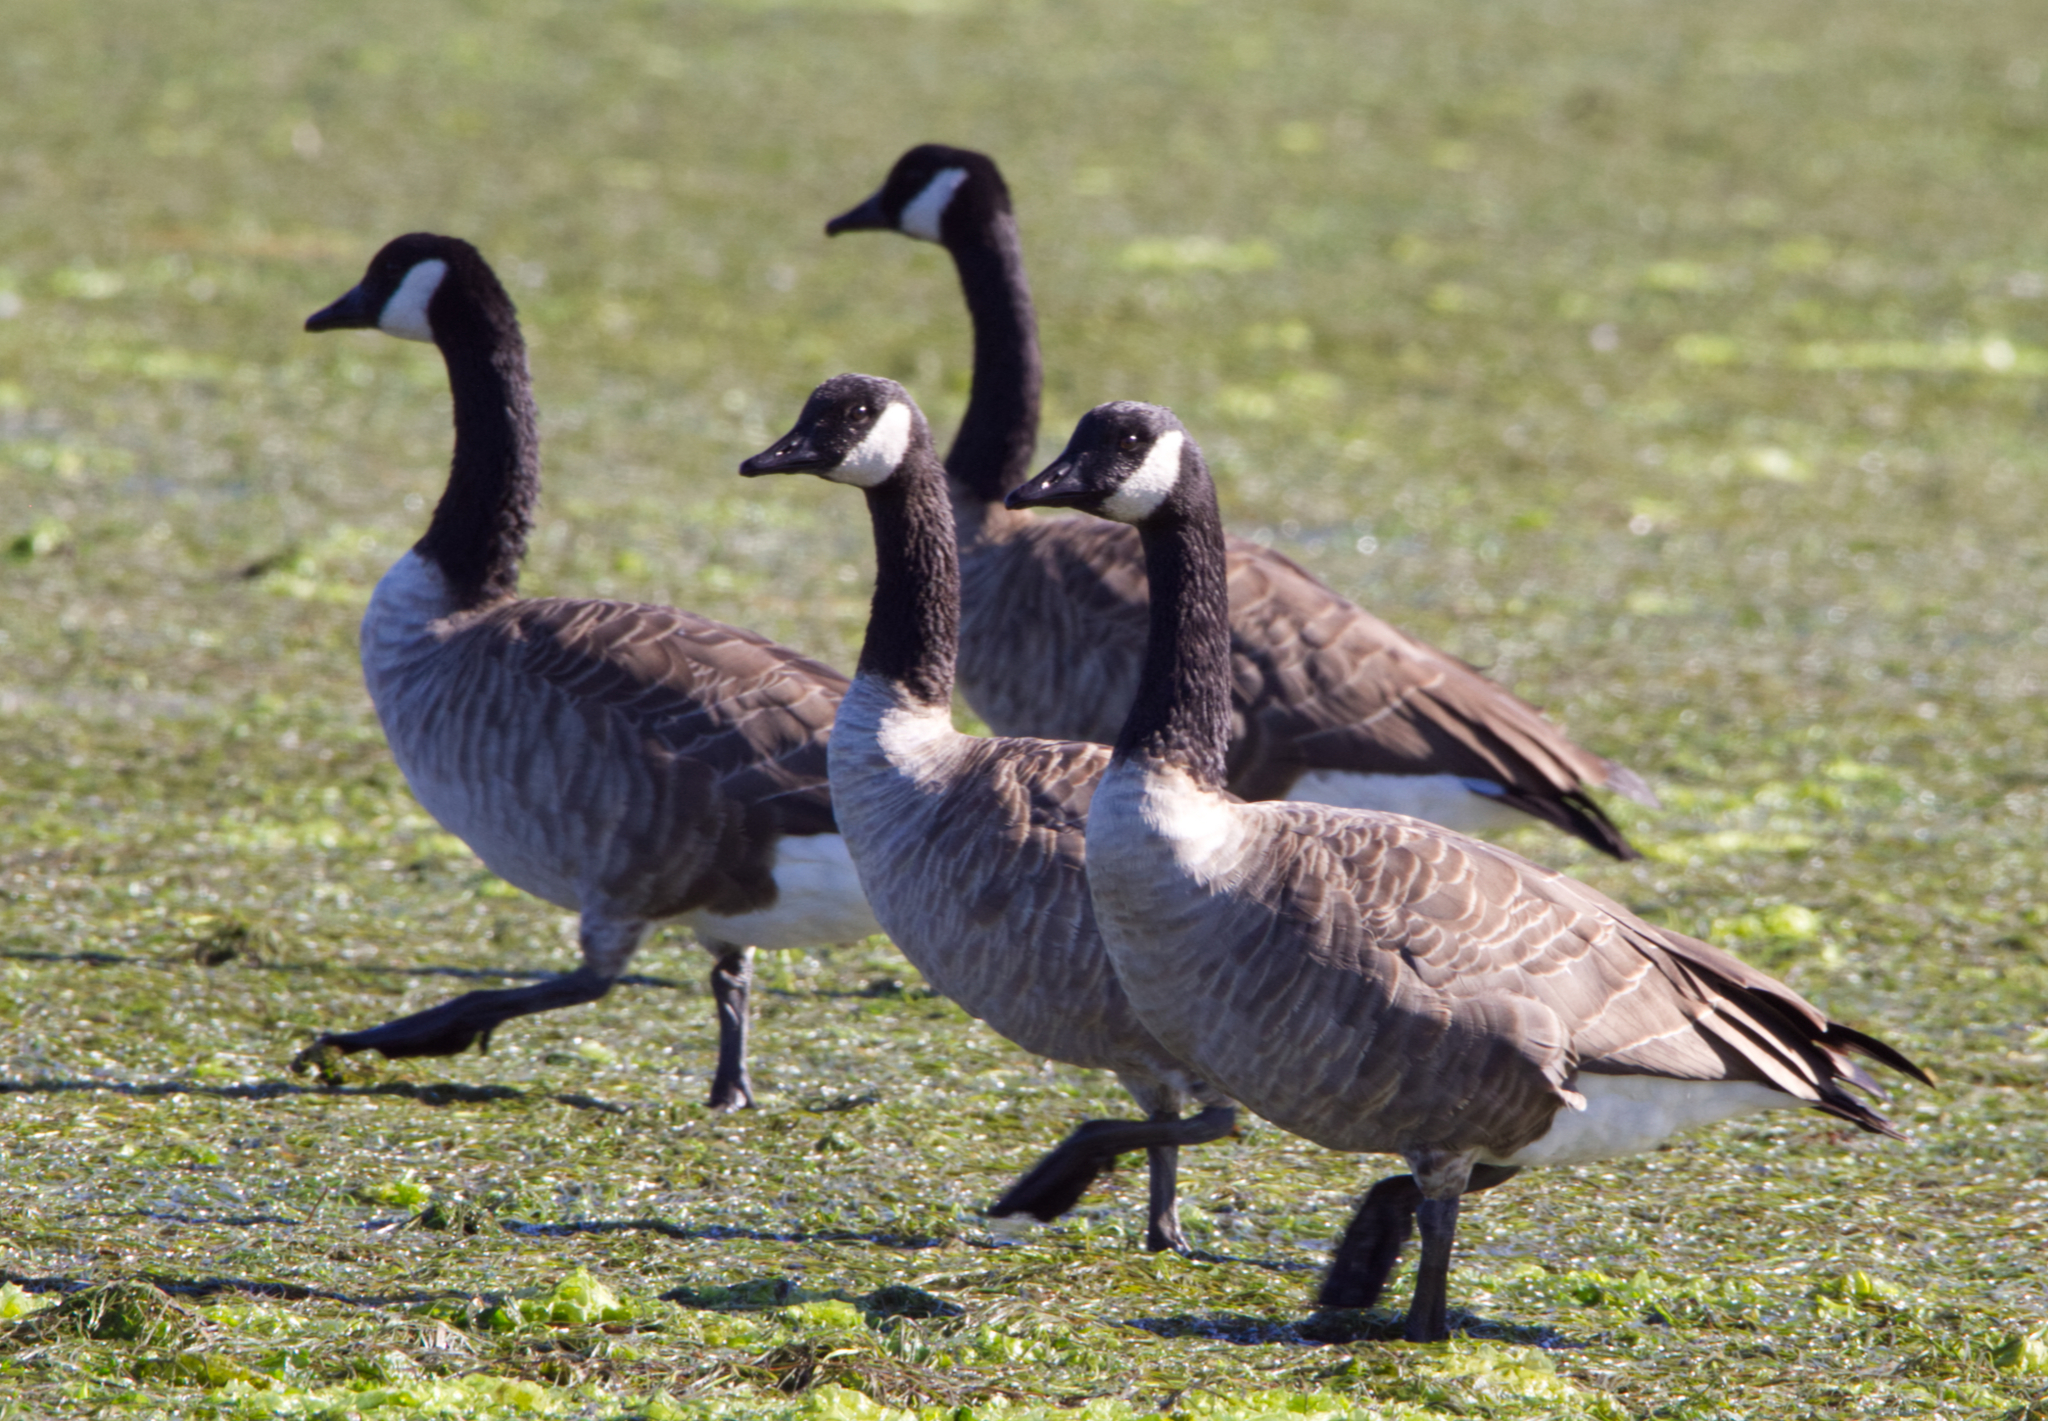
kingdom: Animalia
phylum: Chordata
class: Aves
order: Anseriformes
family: Anatidae
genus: Branta
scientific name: Branta canadensis
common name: Canada goose
